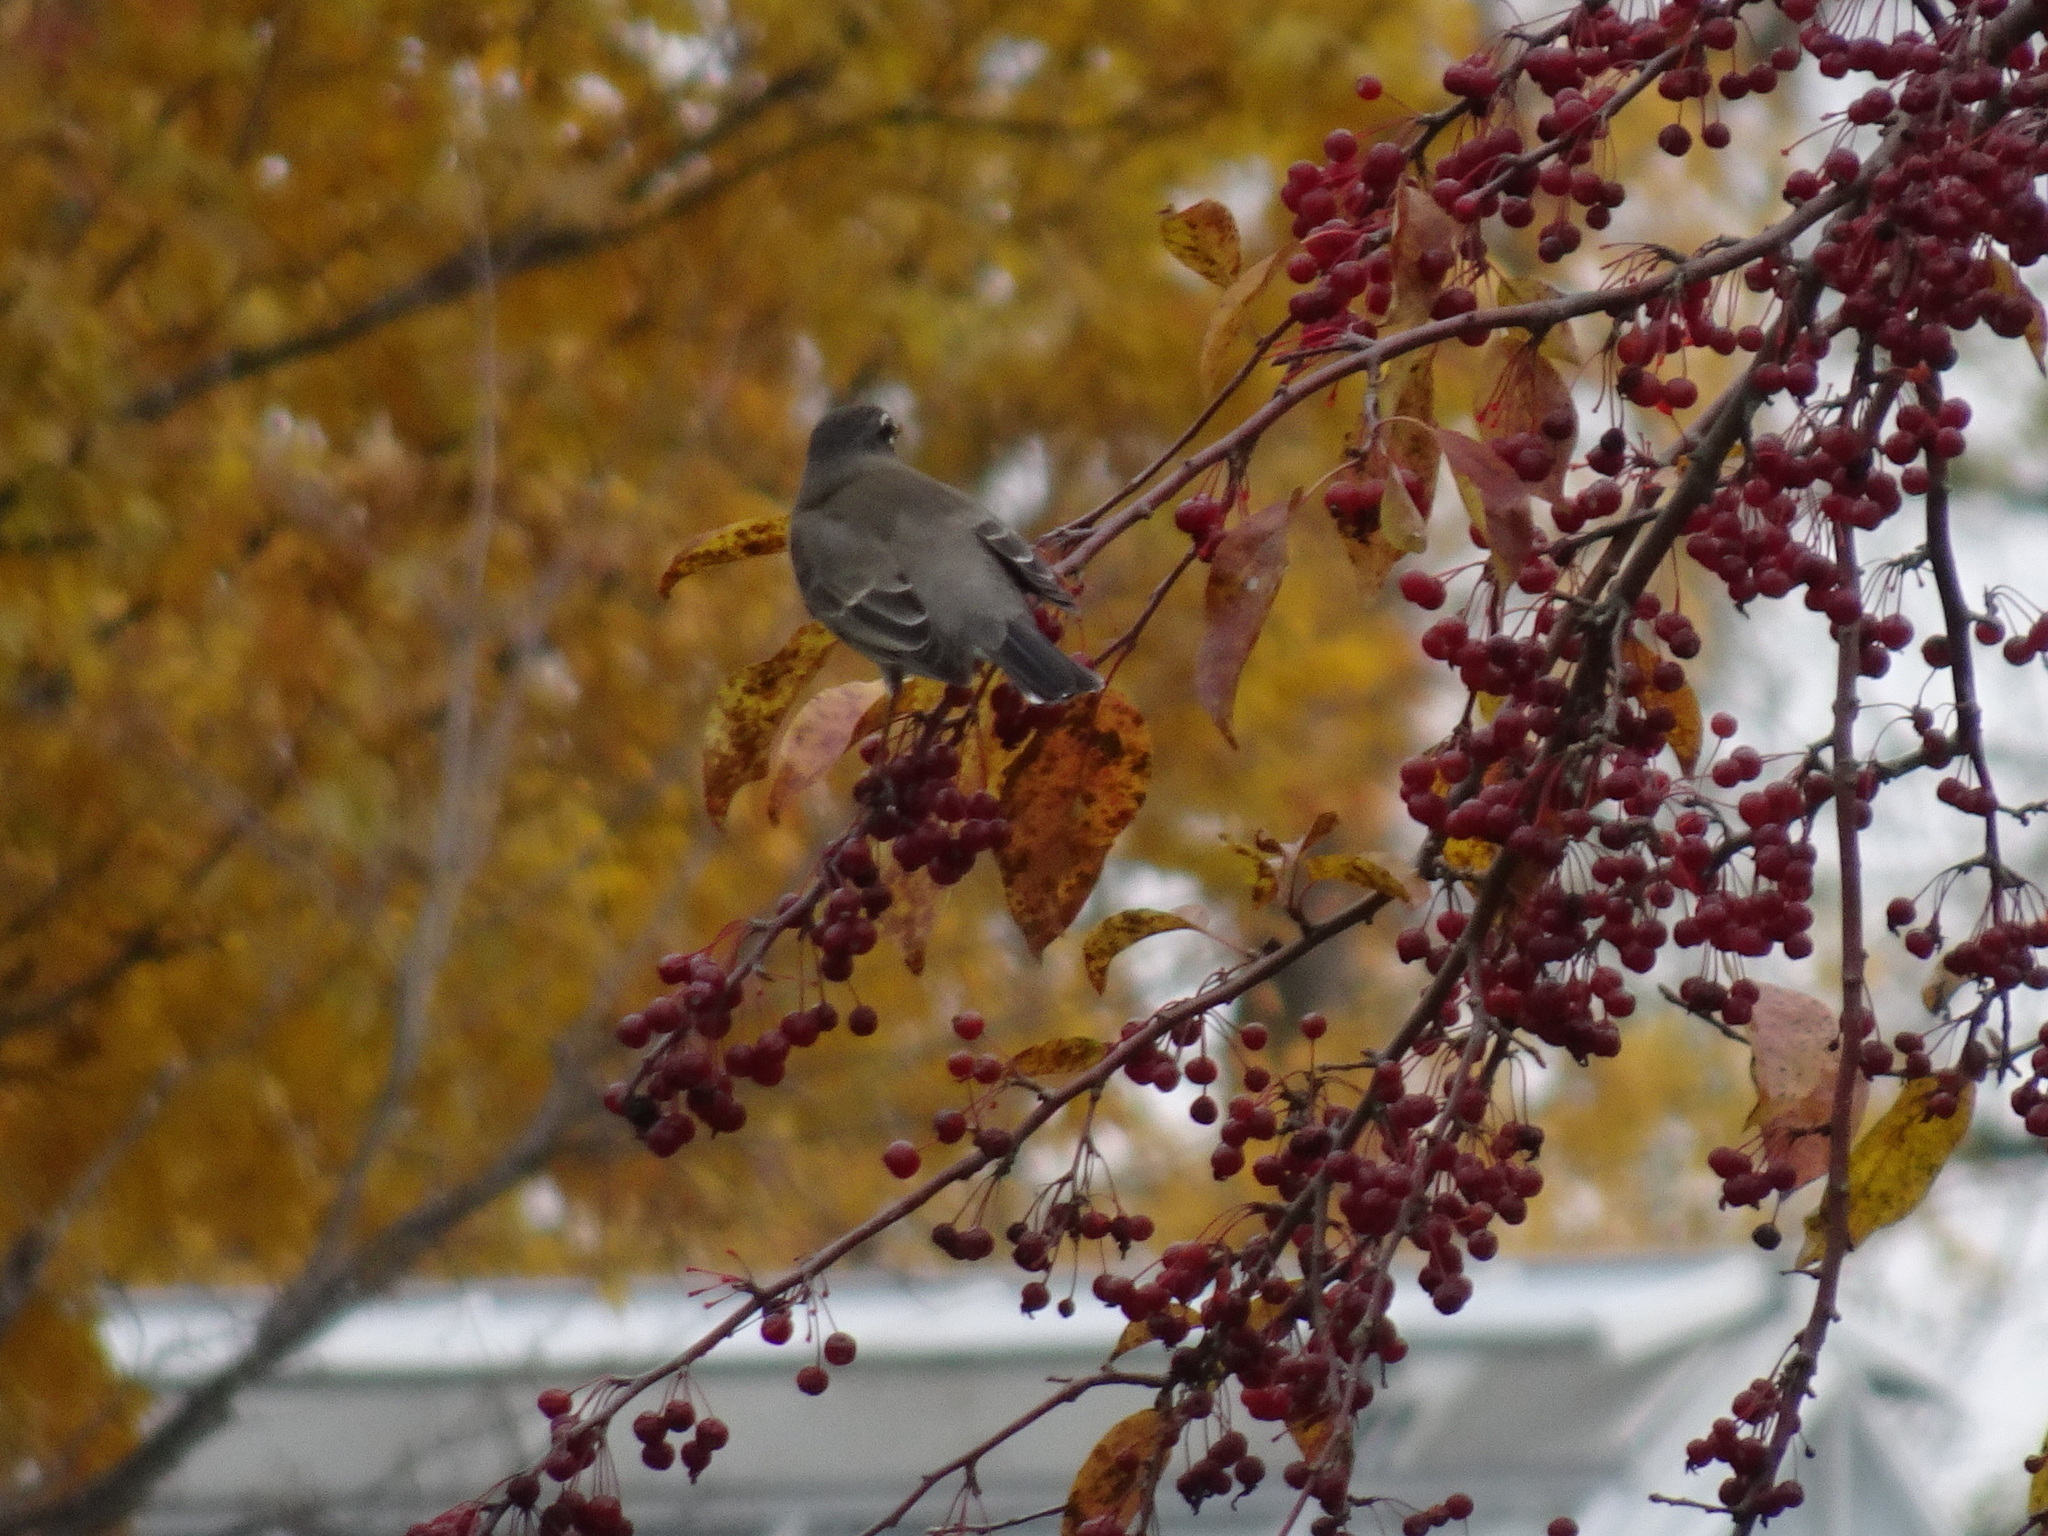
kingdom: Animalia
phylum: Chordata
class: Aves
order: Passeriformes
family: Turdidae
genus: Turdus
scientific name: Turdus migratorius
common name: American robin
